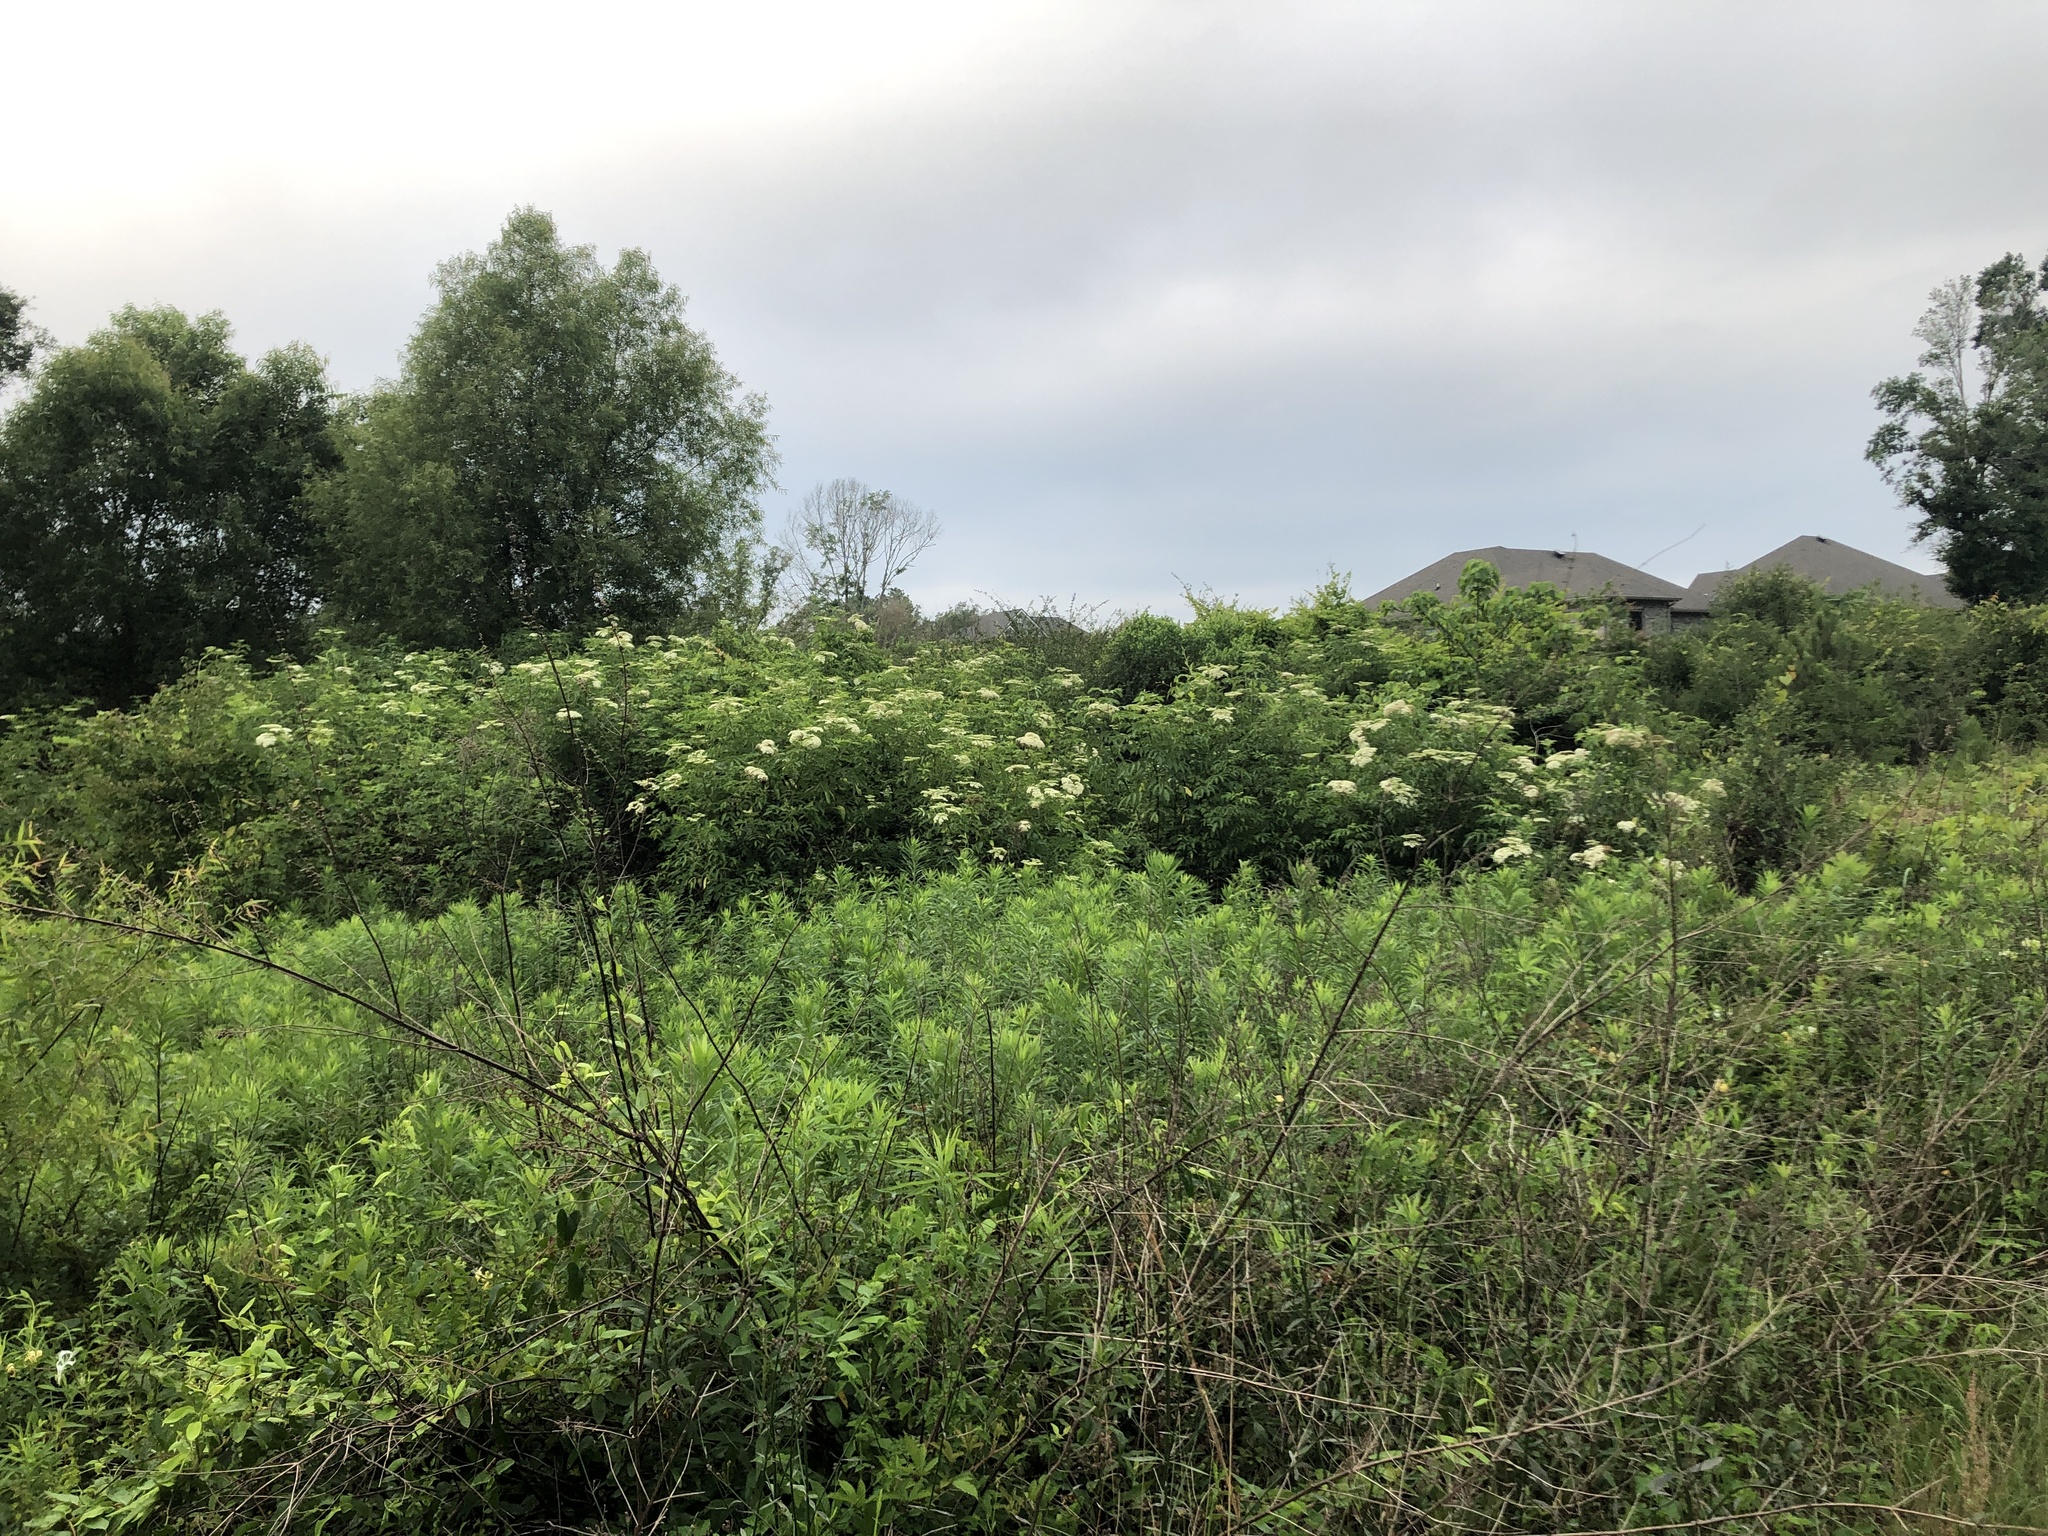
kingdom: Plantae
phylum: Tracheophyta
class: Magnoliopsida
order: Dipsacales
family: Viburnaceae
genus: Sambucus
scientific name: Sambucus canadensis
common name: American elder
